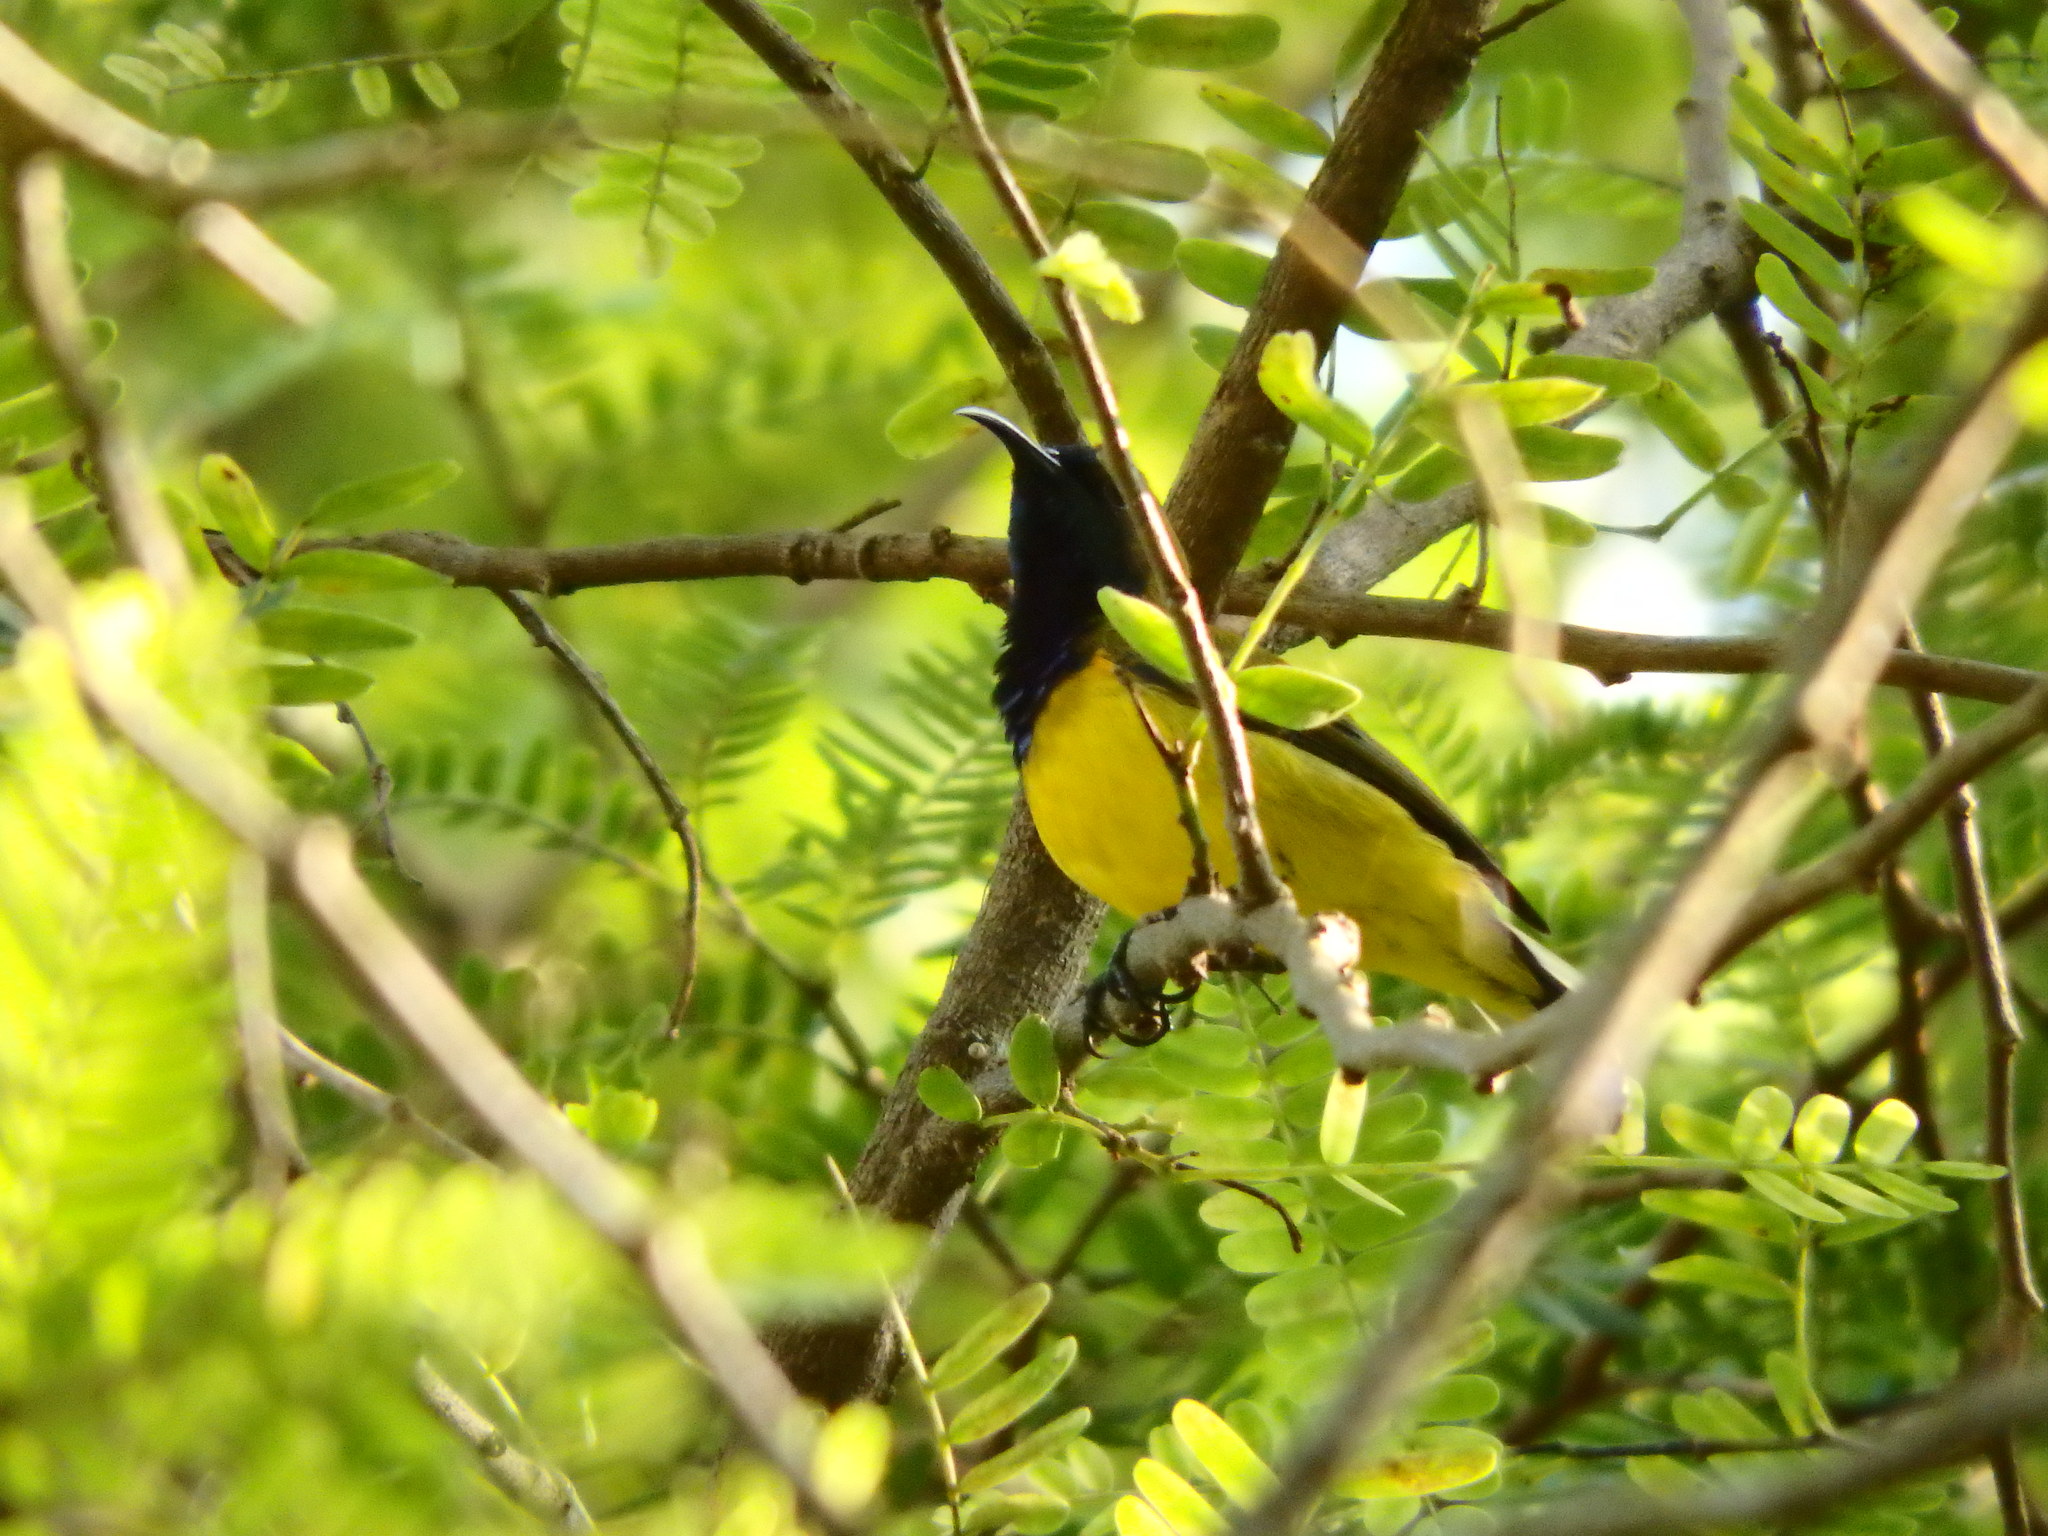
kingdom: Animalia
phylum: Chordata
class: Aves
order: Passeriformes
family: Nectariniidae
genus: Cinnyris
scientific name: Cinnyris
